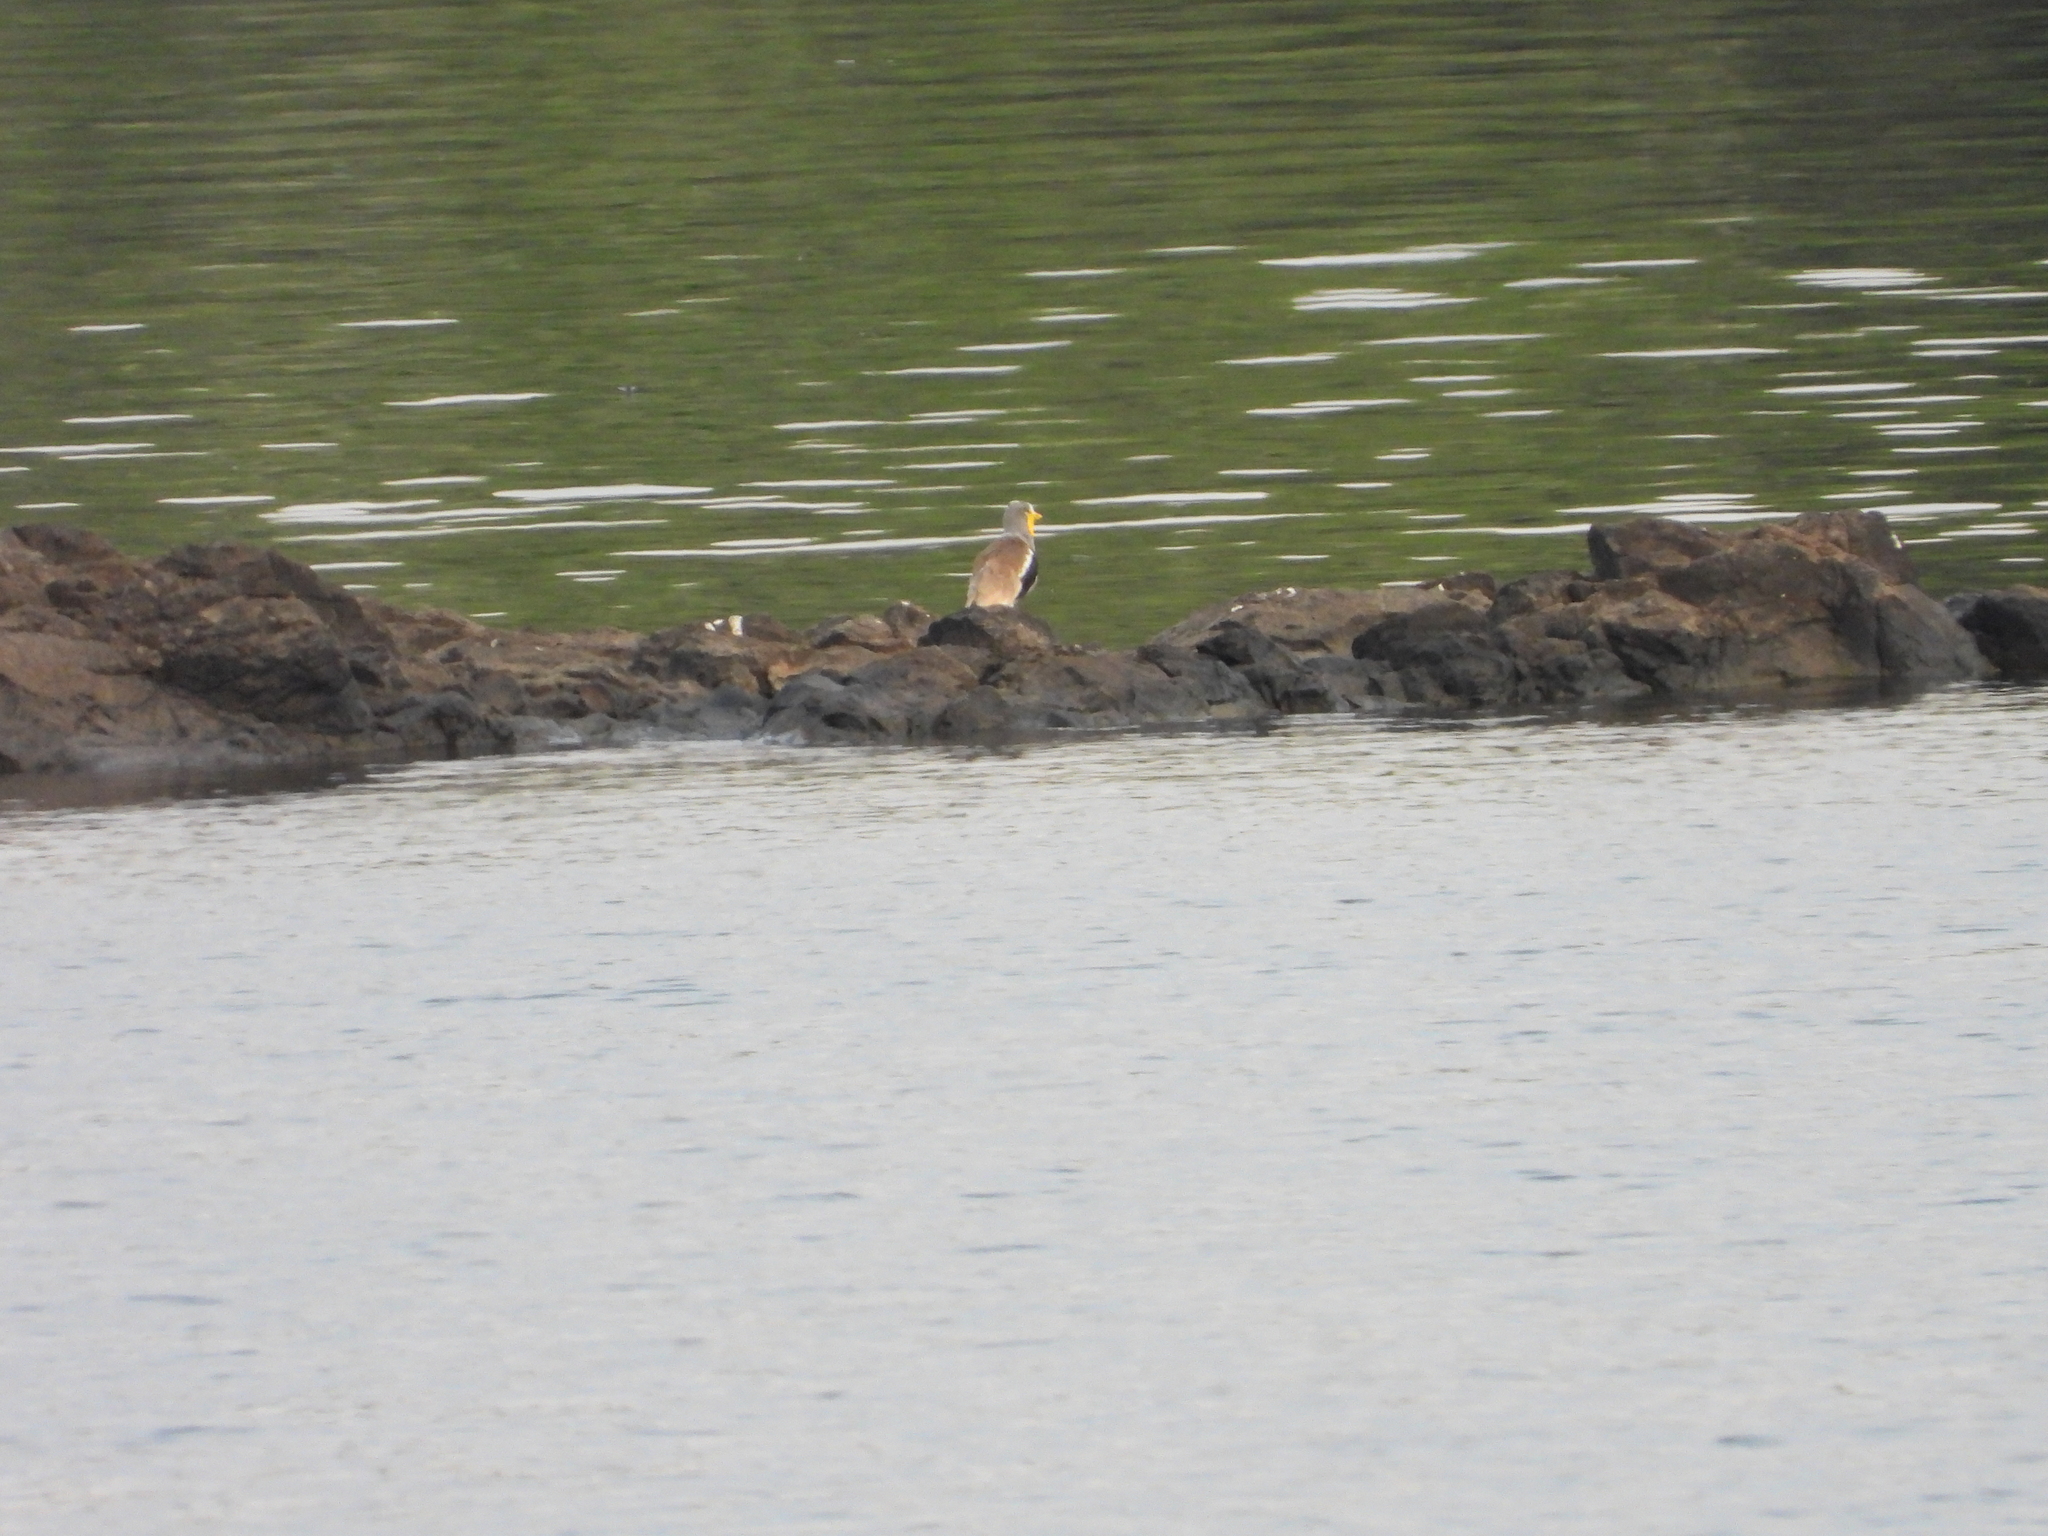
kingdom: Animalia
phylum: Chordata
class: Aves
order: Charadriiformes
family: Charadriidae
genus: Vanellus
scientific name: Vanellus albiceps
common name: White-crowned lapwing
